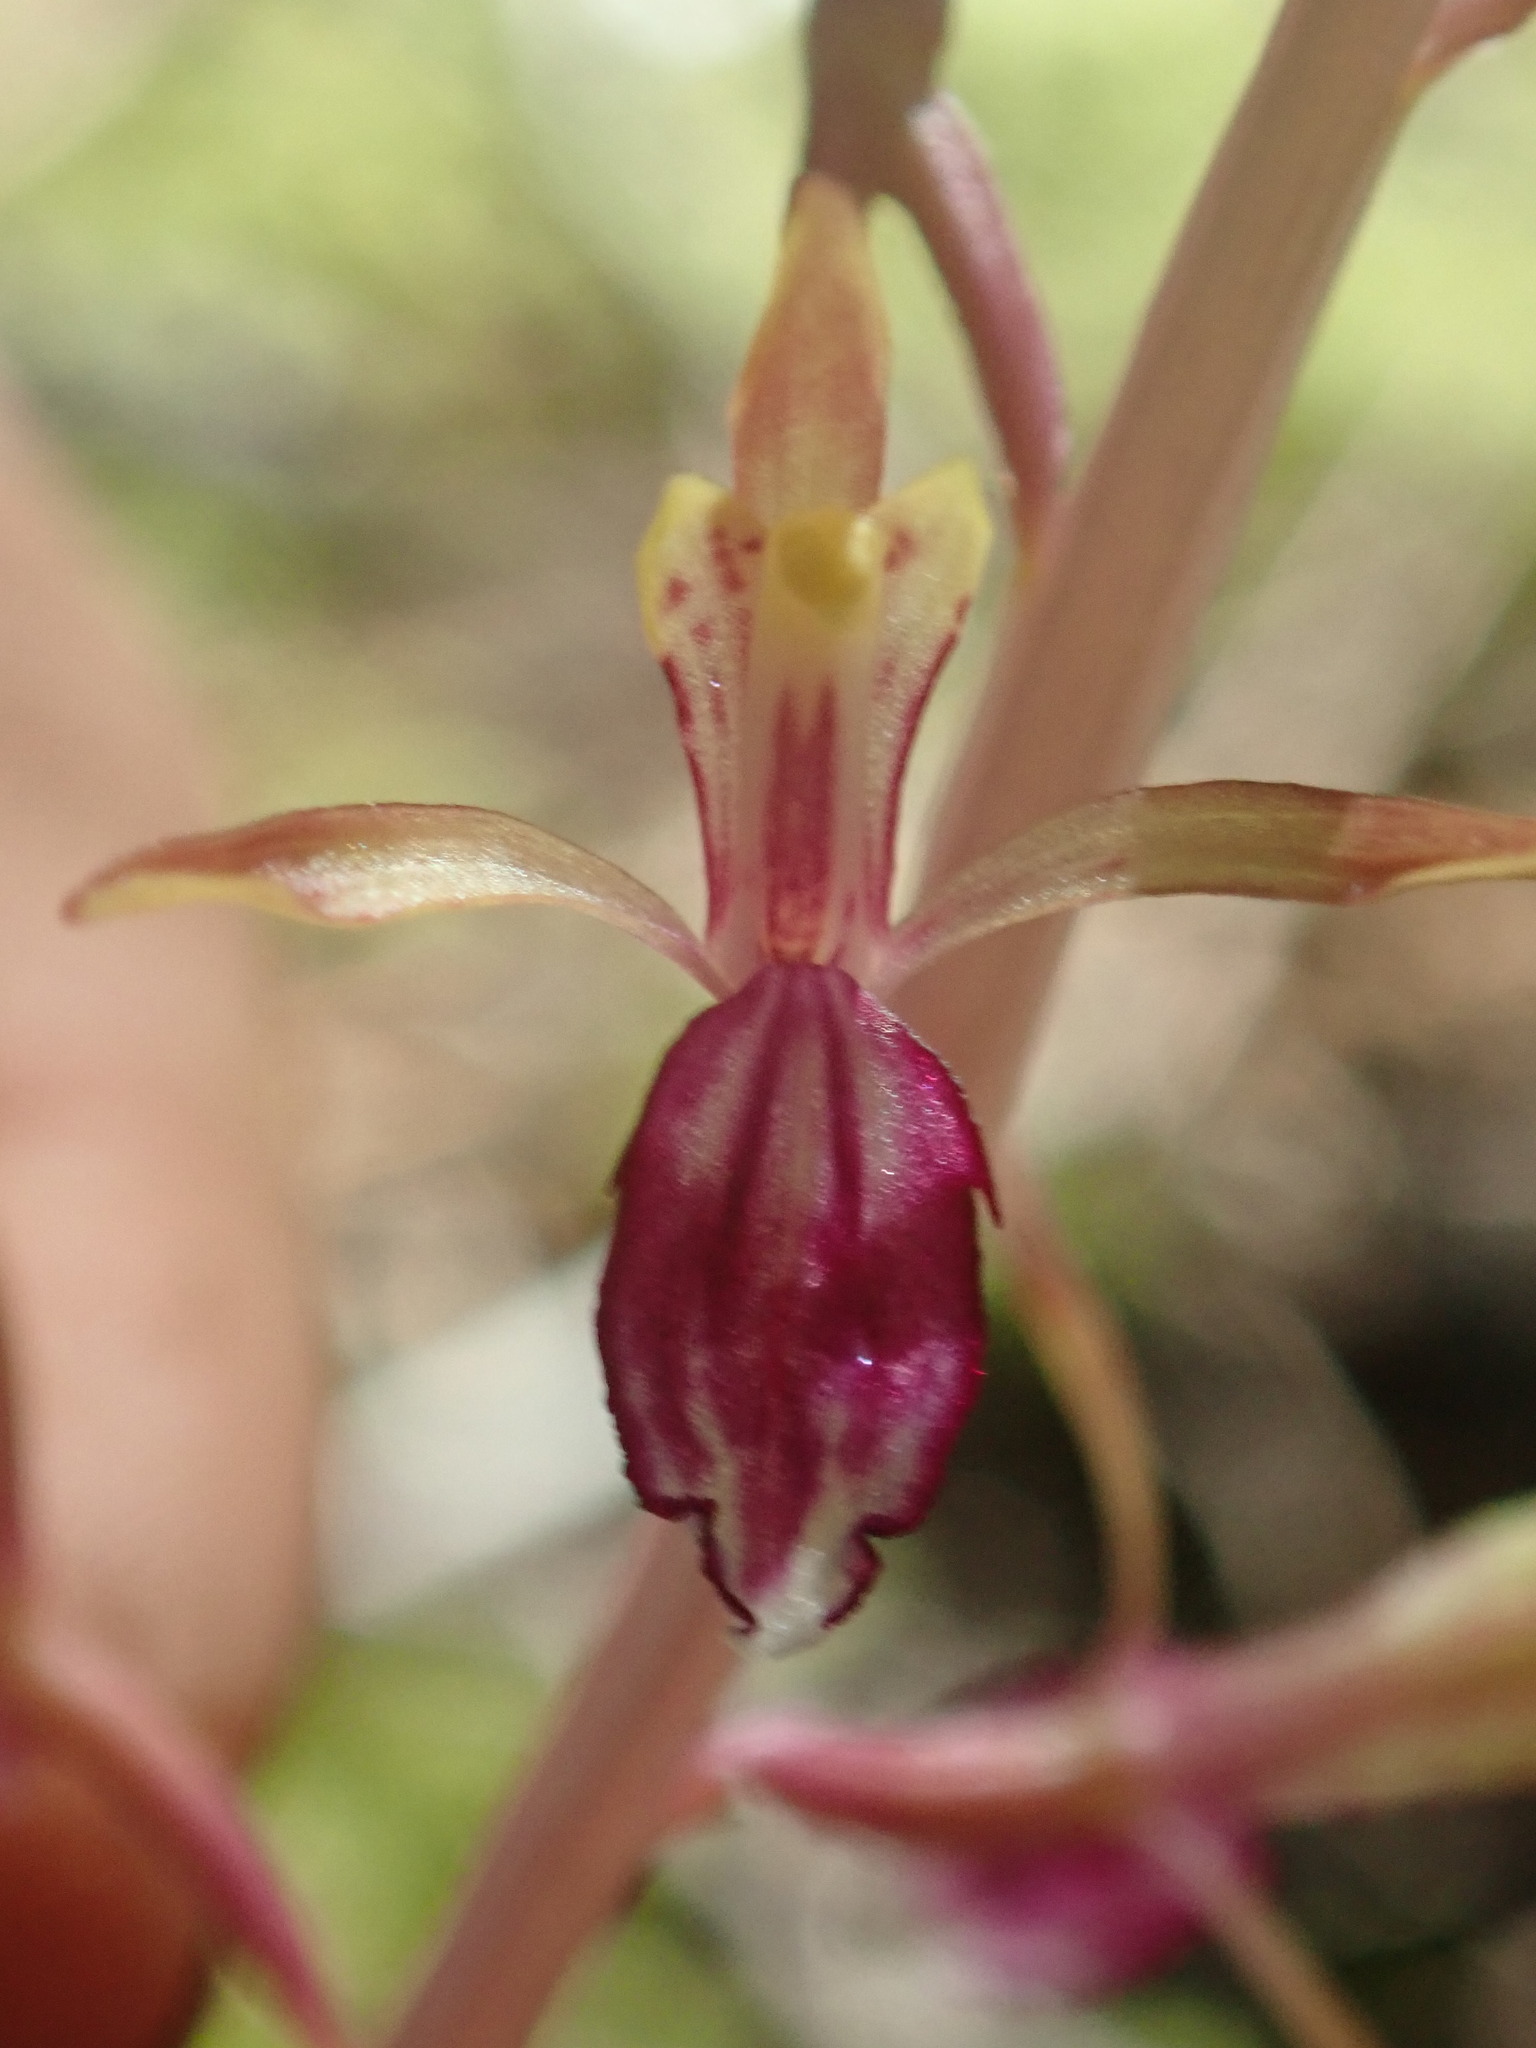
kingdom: Plantae
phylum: Tracheophyta
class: Liliopsida
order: Asparagales
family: Orchidaceae
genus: Corallorhiza
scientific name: Corallorhiza mertensiana
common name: Pacific coralroot
